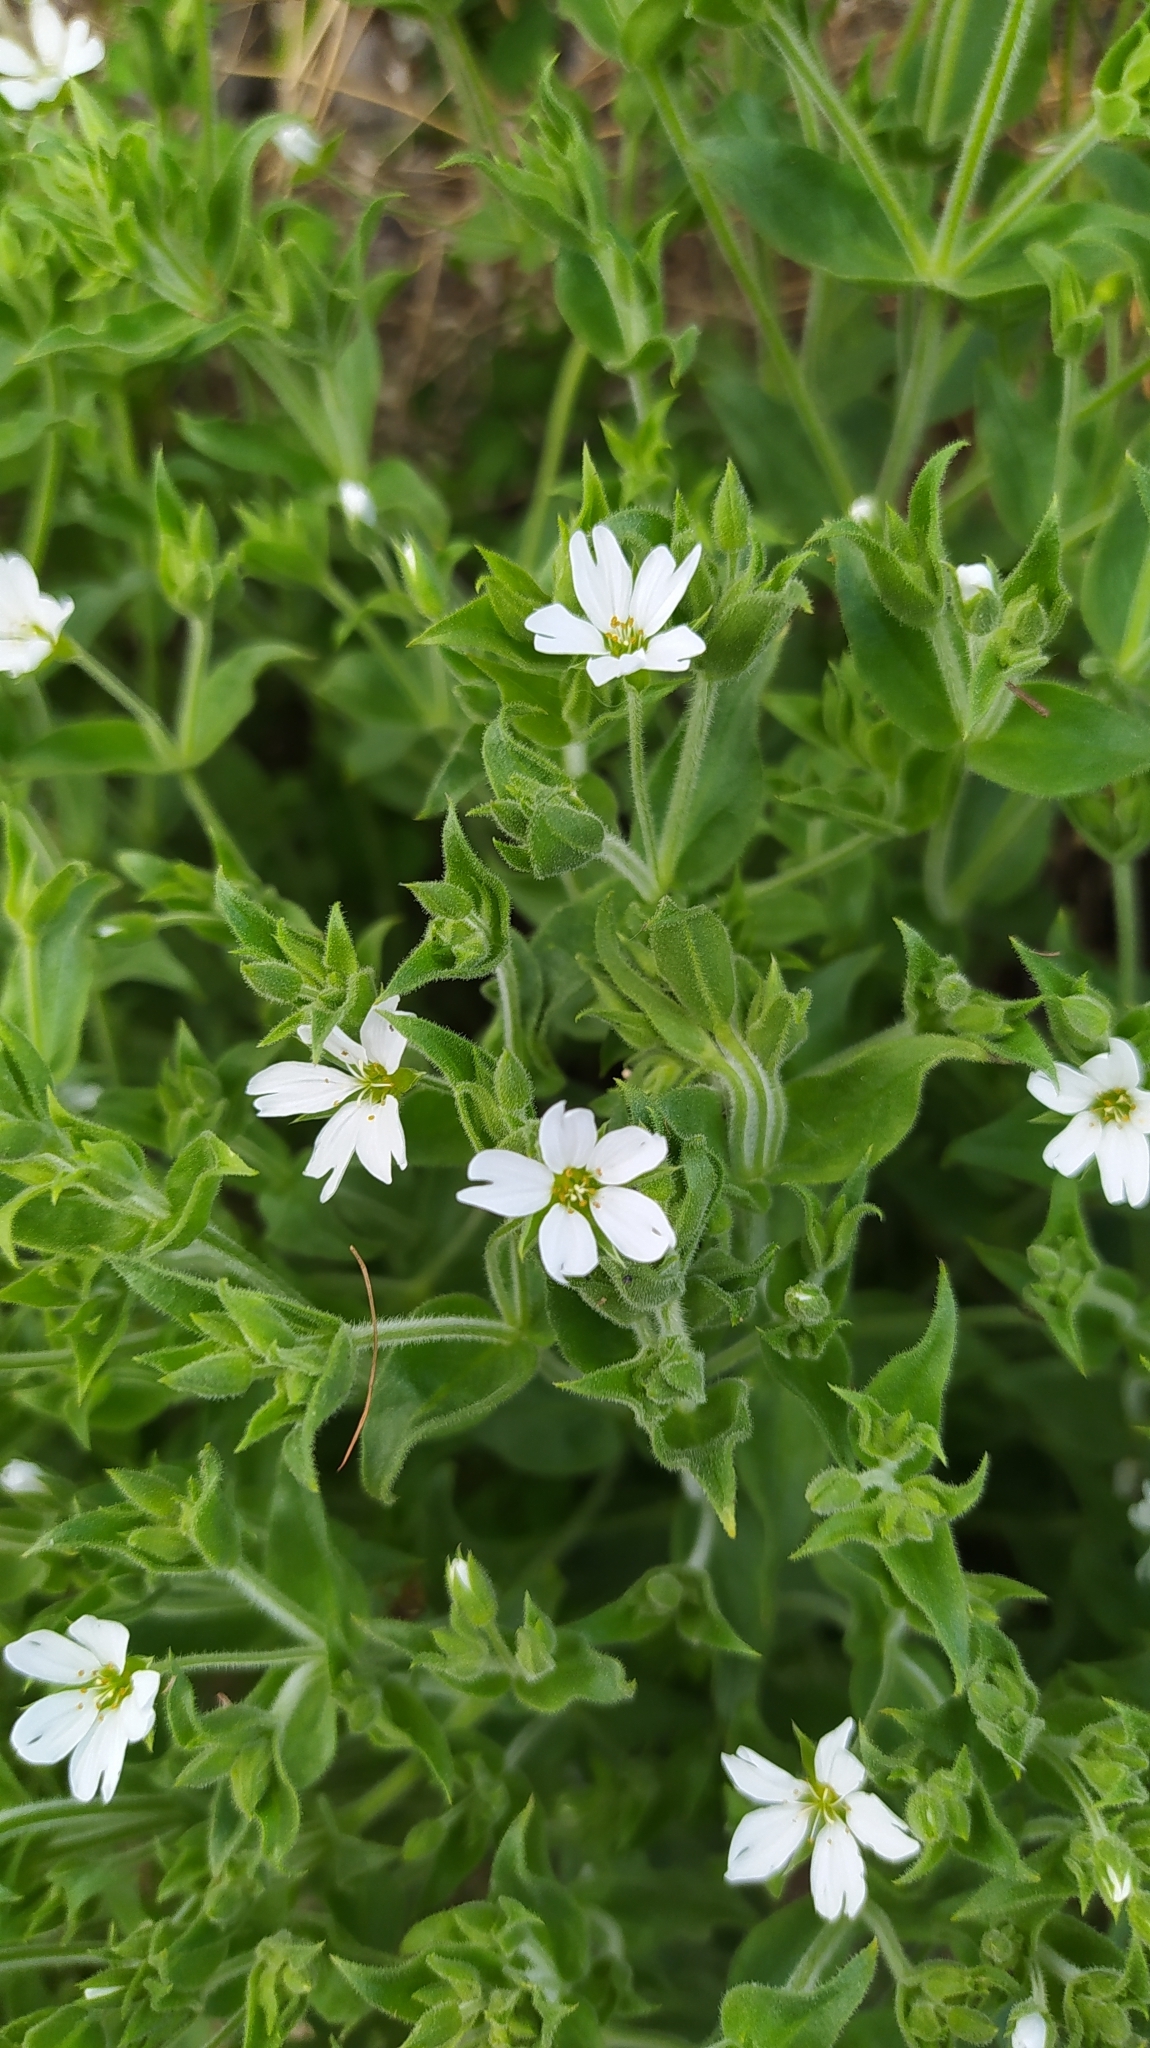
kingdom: Plantae
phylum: Tracheophyta
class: Magnoliopsida
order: Caryophyllales
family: Caryophyllaceae
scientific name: Caryophyllaceae
